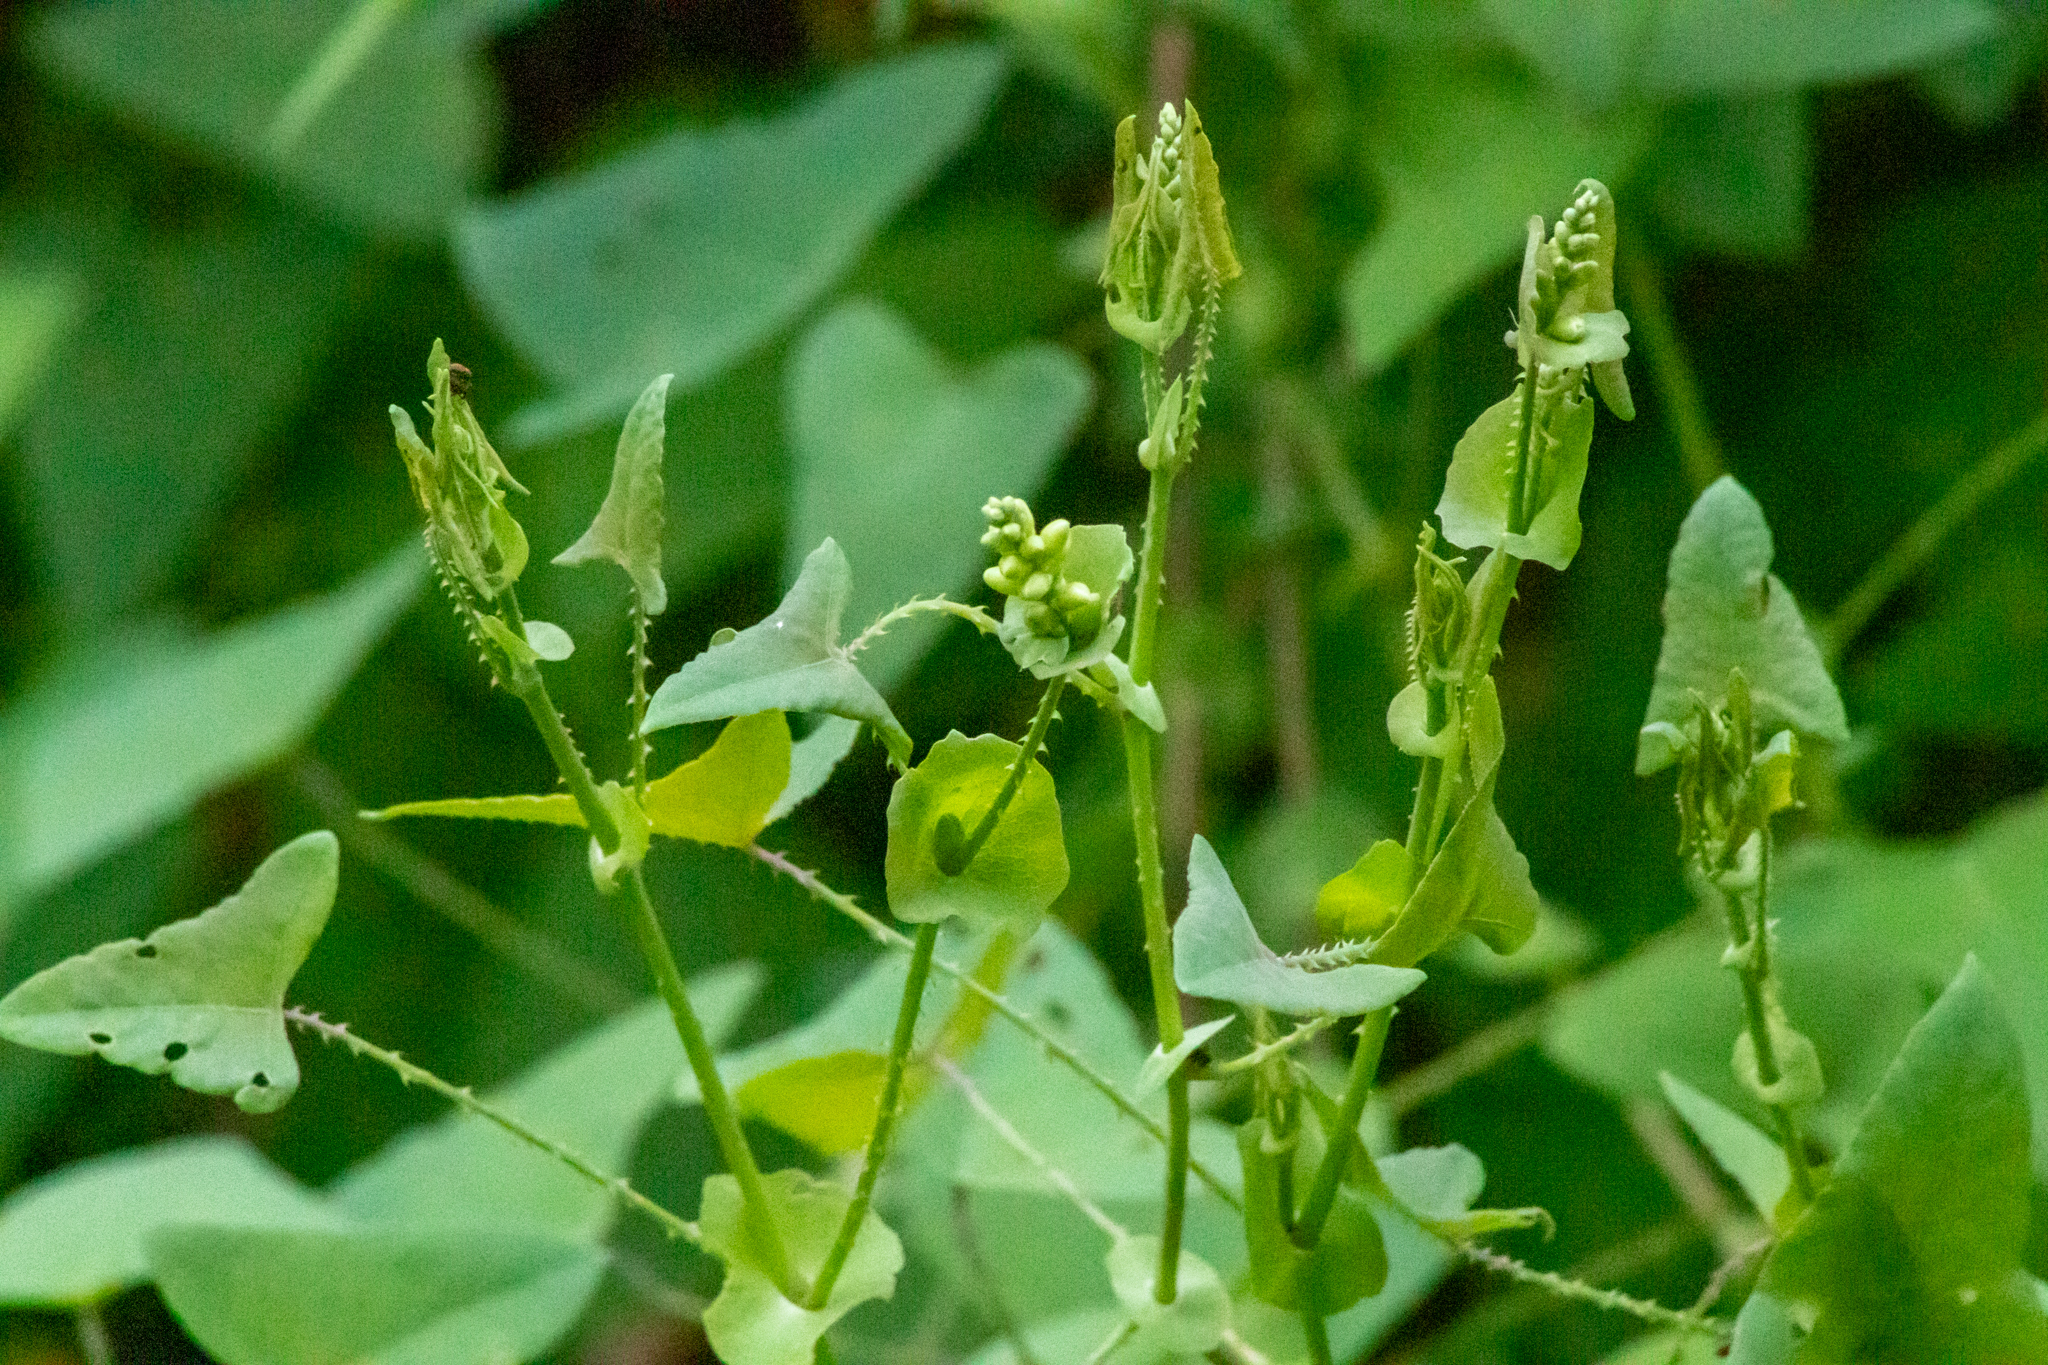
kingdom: Plantae
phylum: Tracheophyta
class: Magnoliopsida
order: Caryophyllales
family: Polygonaceae
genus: Persicaria
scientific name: Persicaria perfoliata
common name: Asiatic tearthumb
